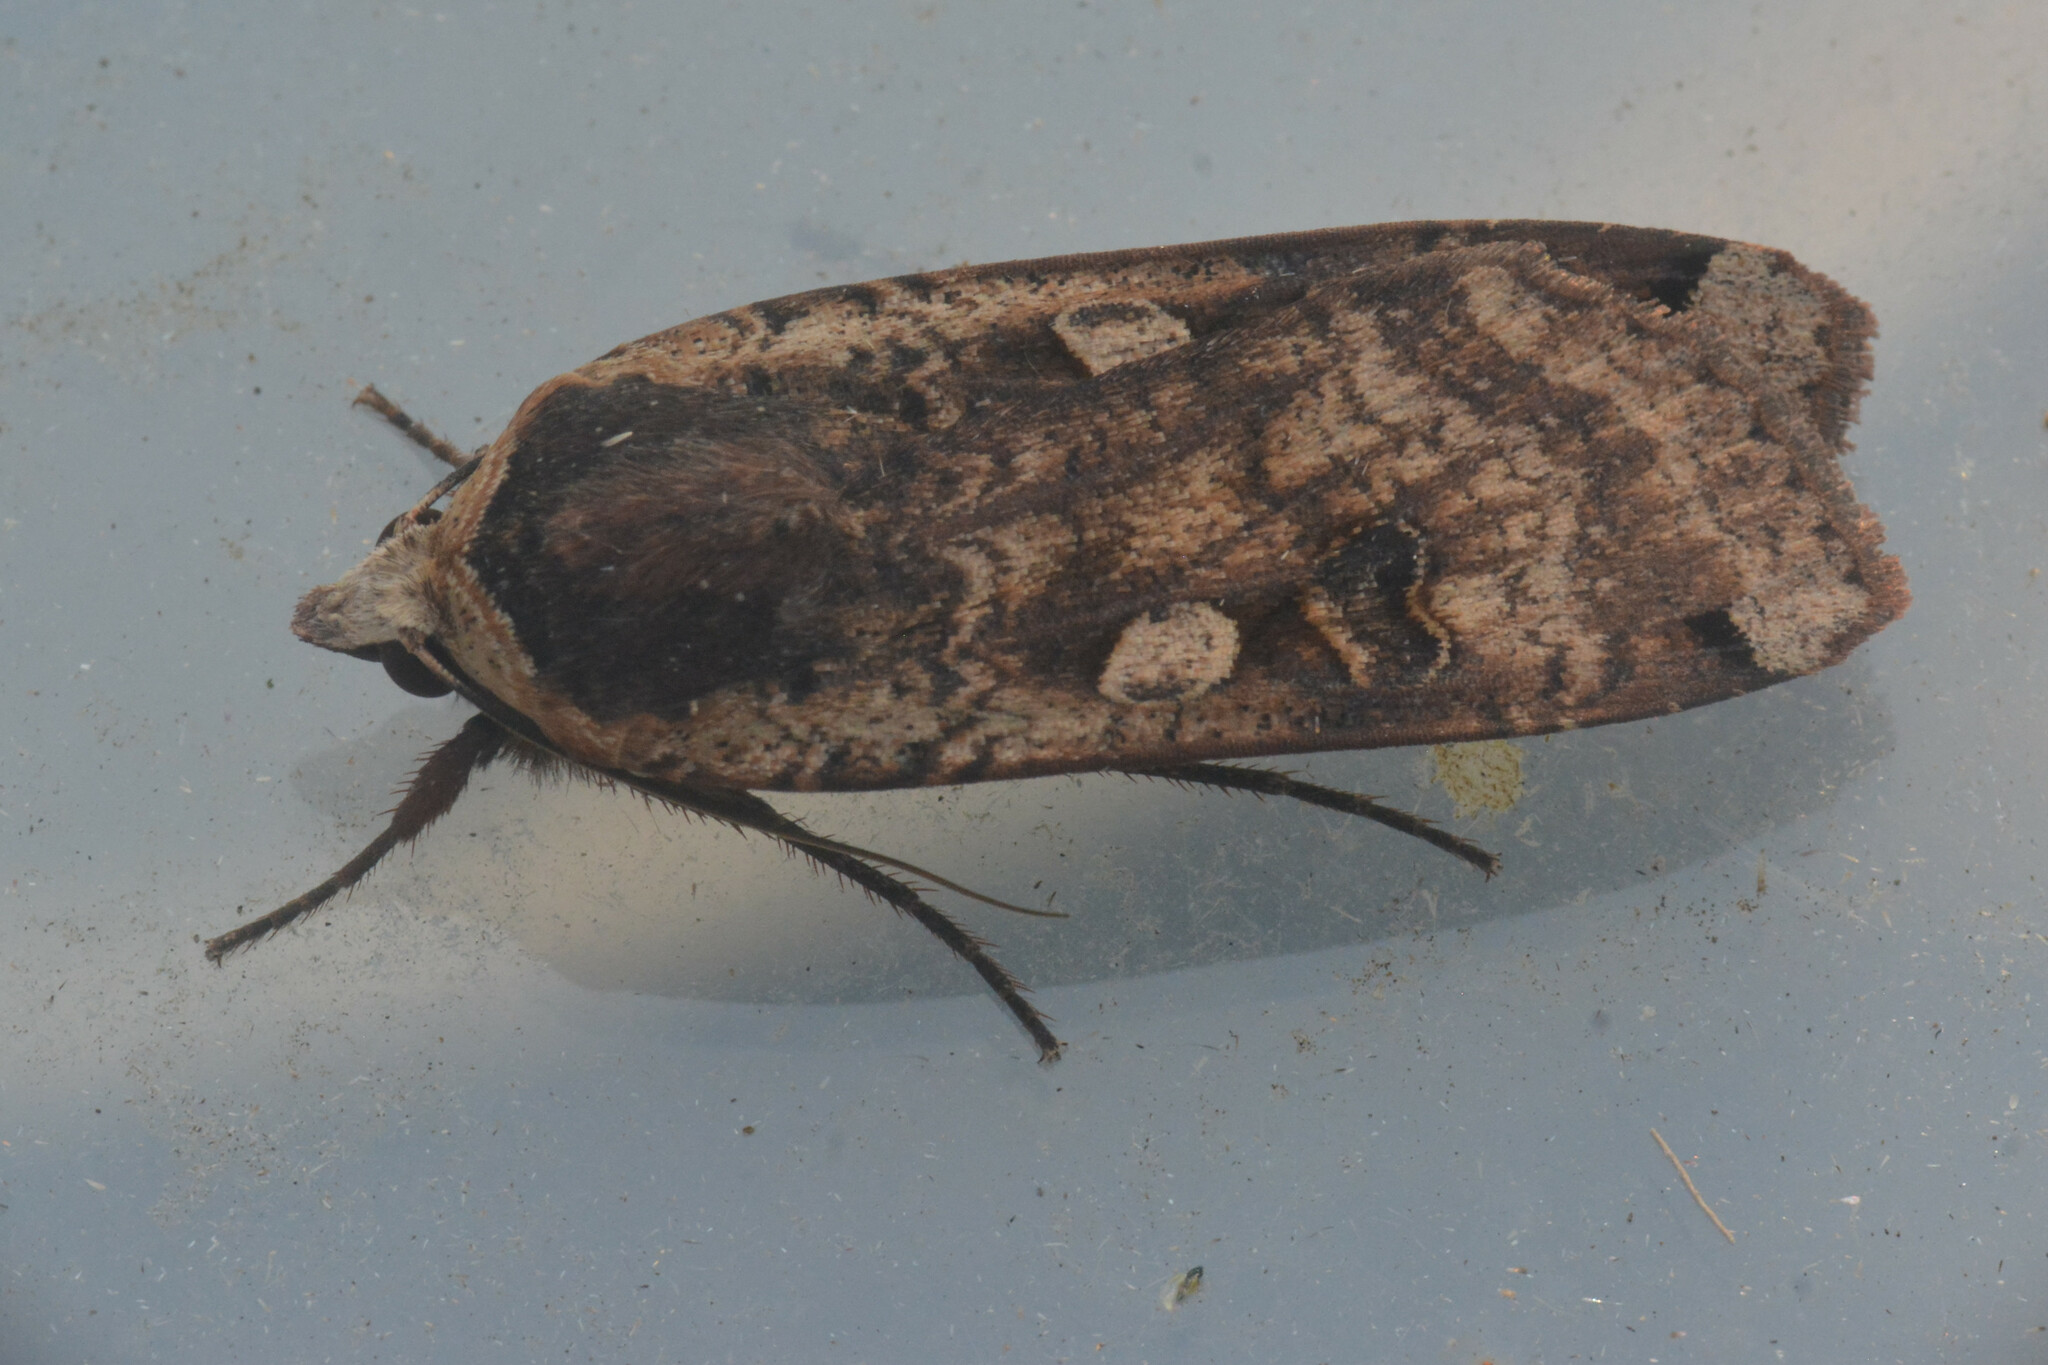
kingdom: Animalia
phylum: Arthropoda
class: Insecta
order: Lepidoptera
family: Noctuidae
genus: Noctua
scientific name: Noctua pronuba
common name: Large yellow underwing
